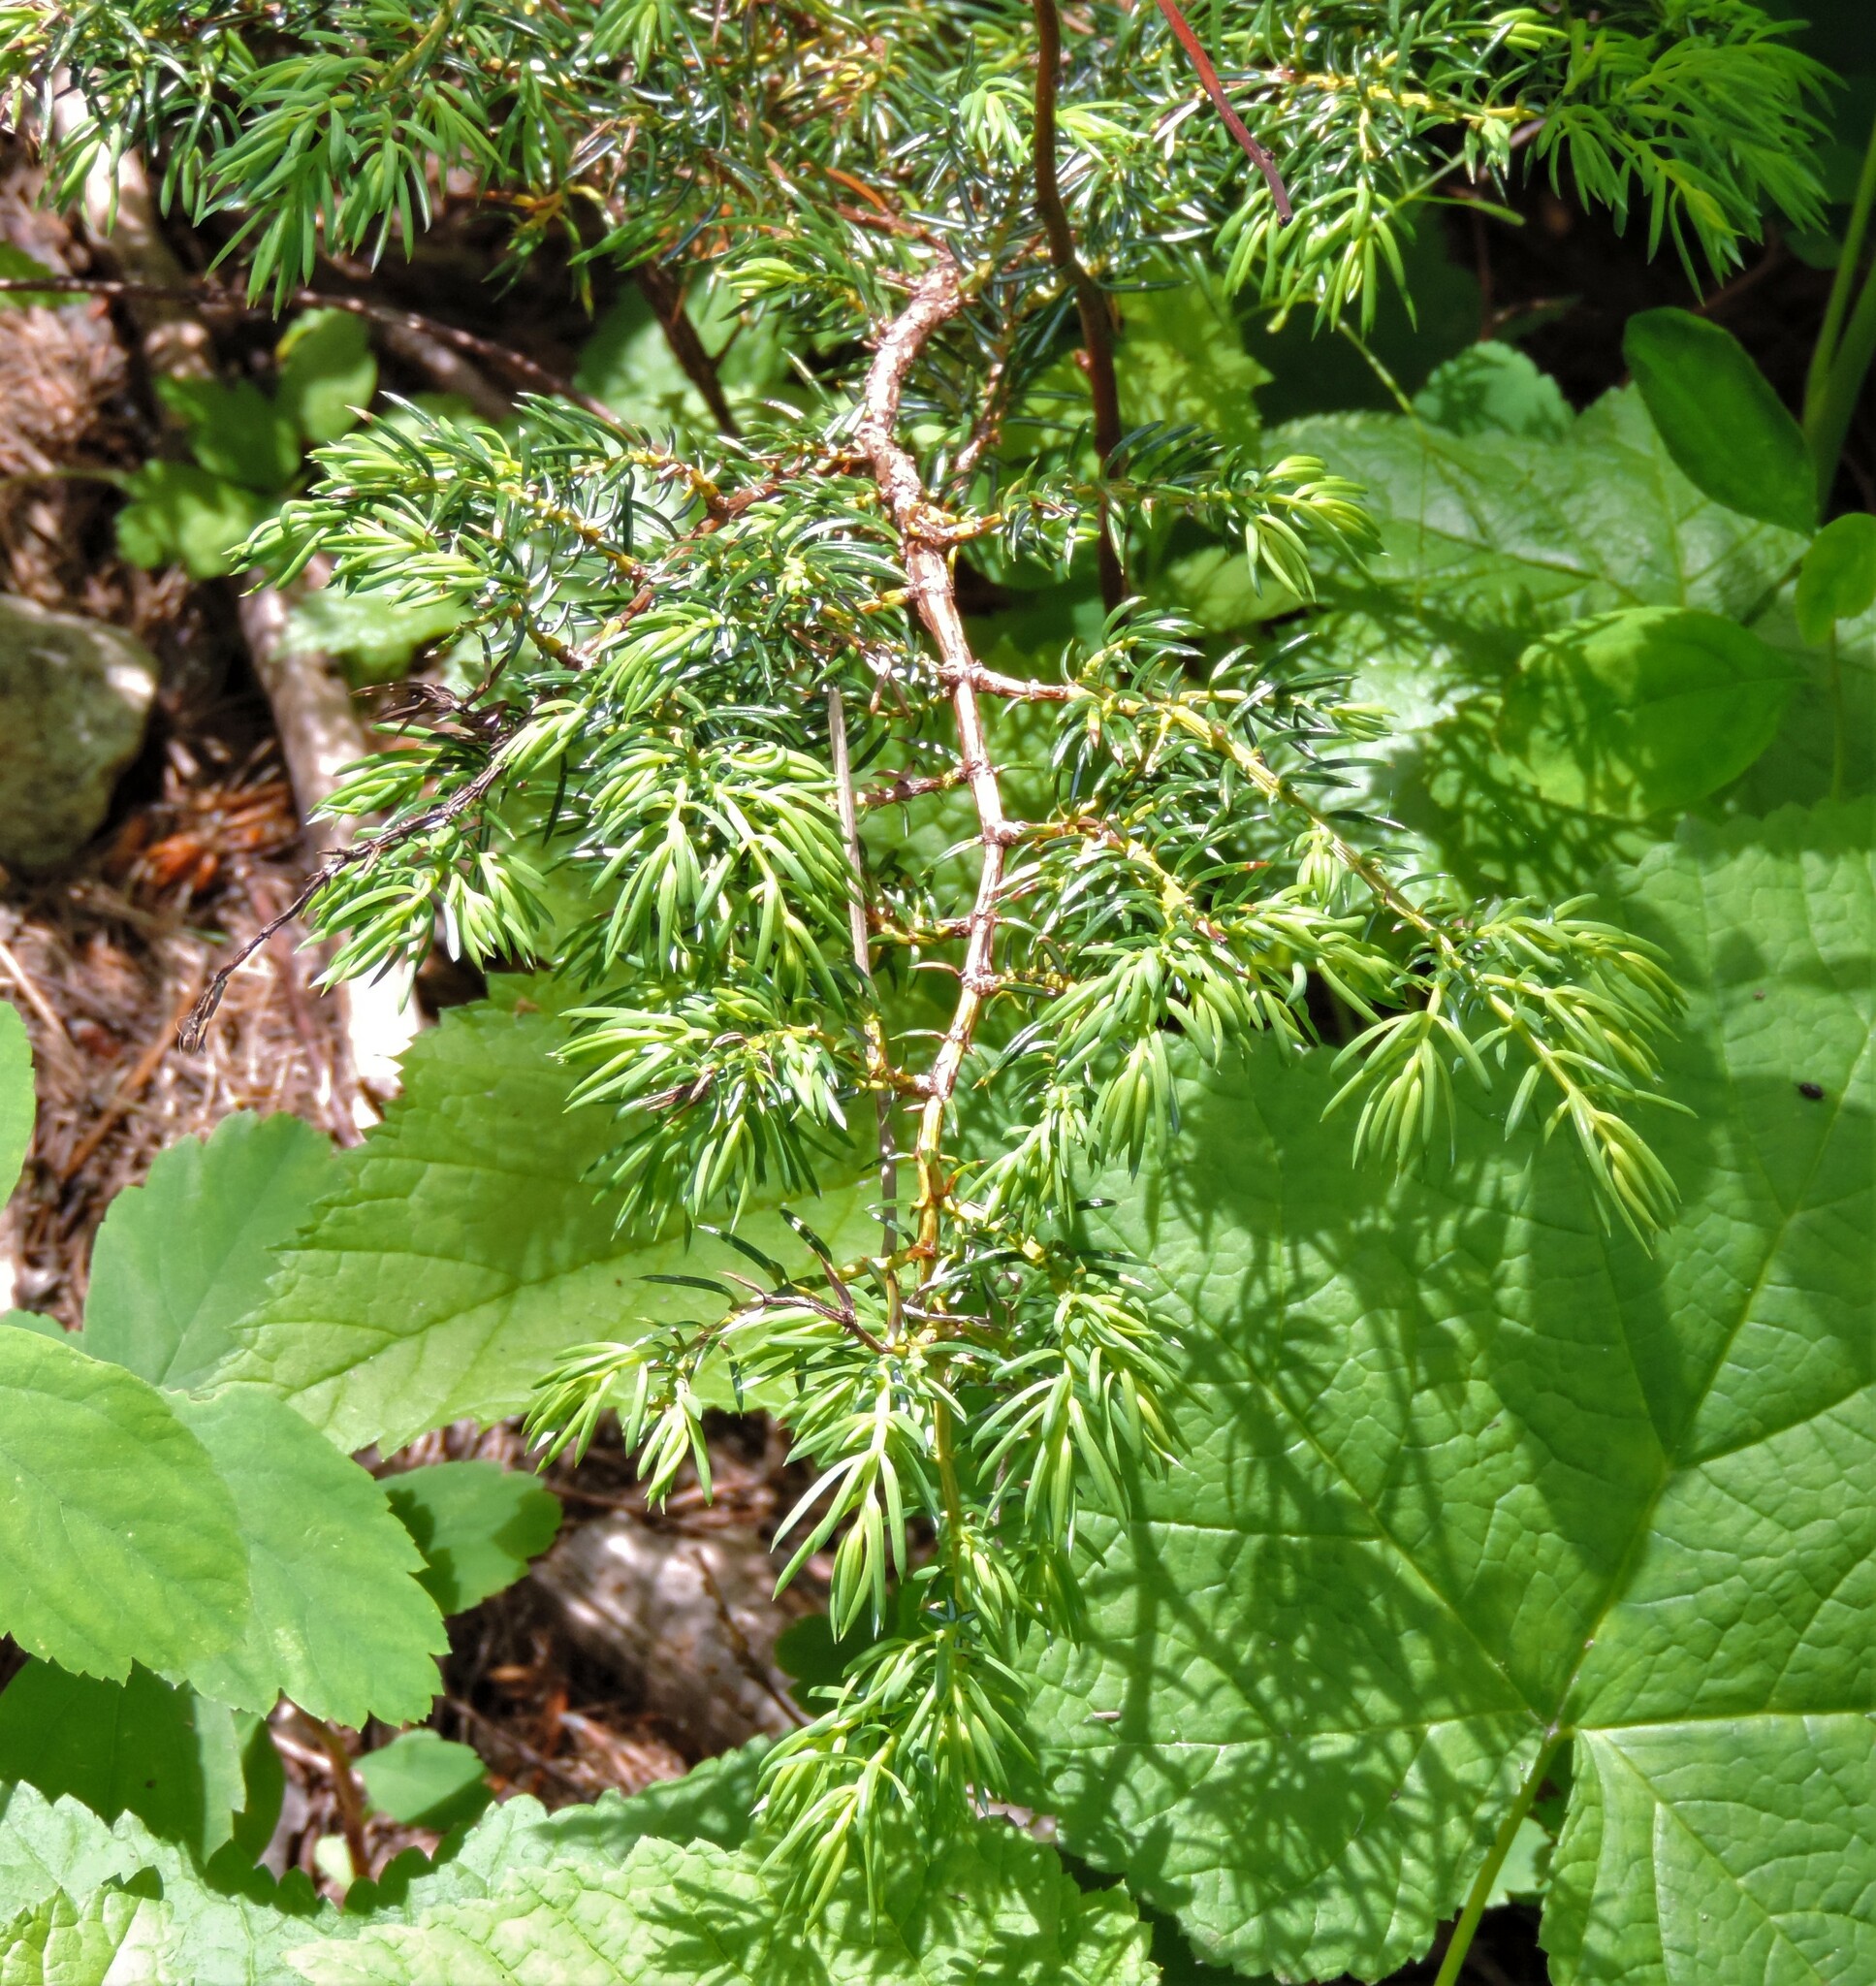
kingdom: Plantae
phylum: Tracheophyta
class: Pinopsida
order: Pinales
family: Cupressaceae
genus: Juniperus
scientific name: Juniperus communis
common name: Common juniper
